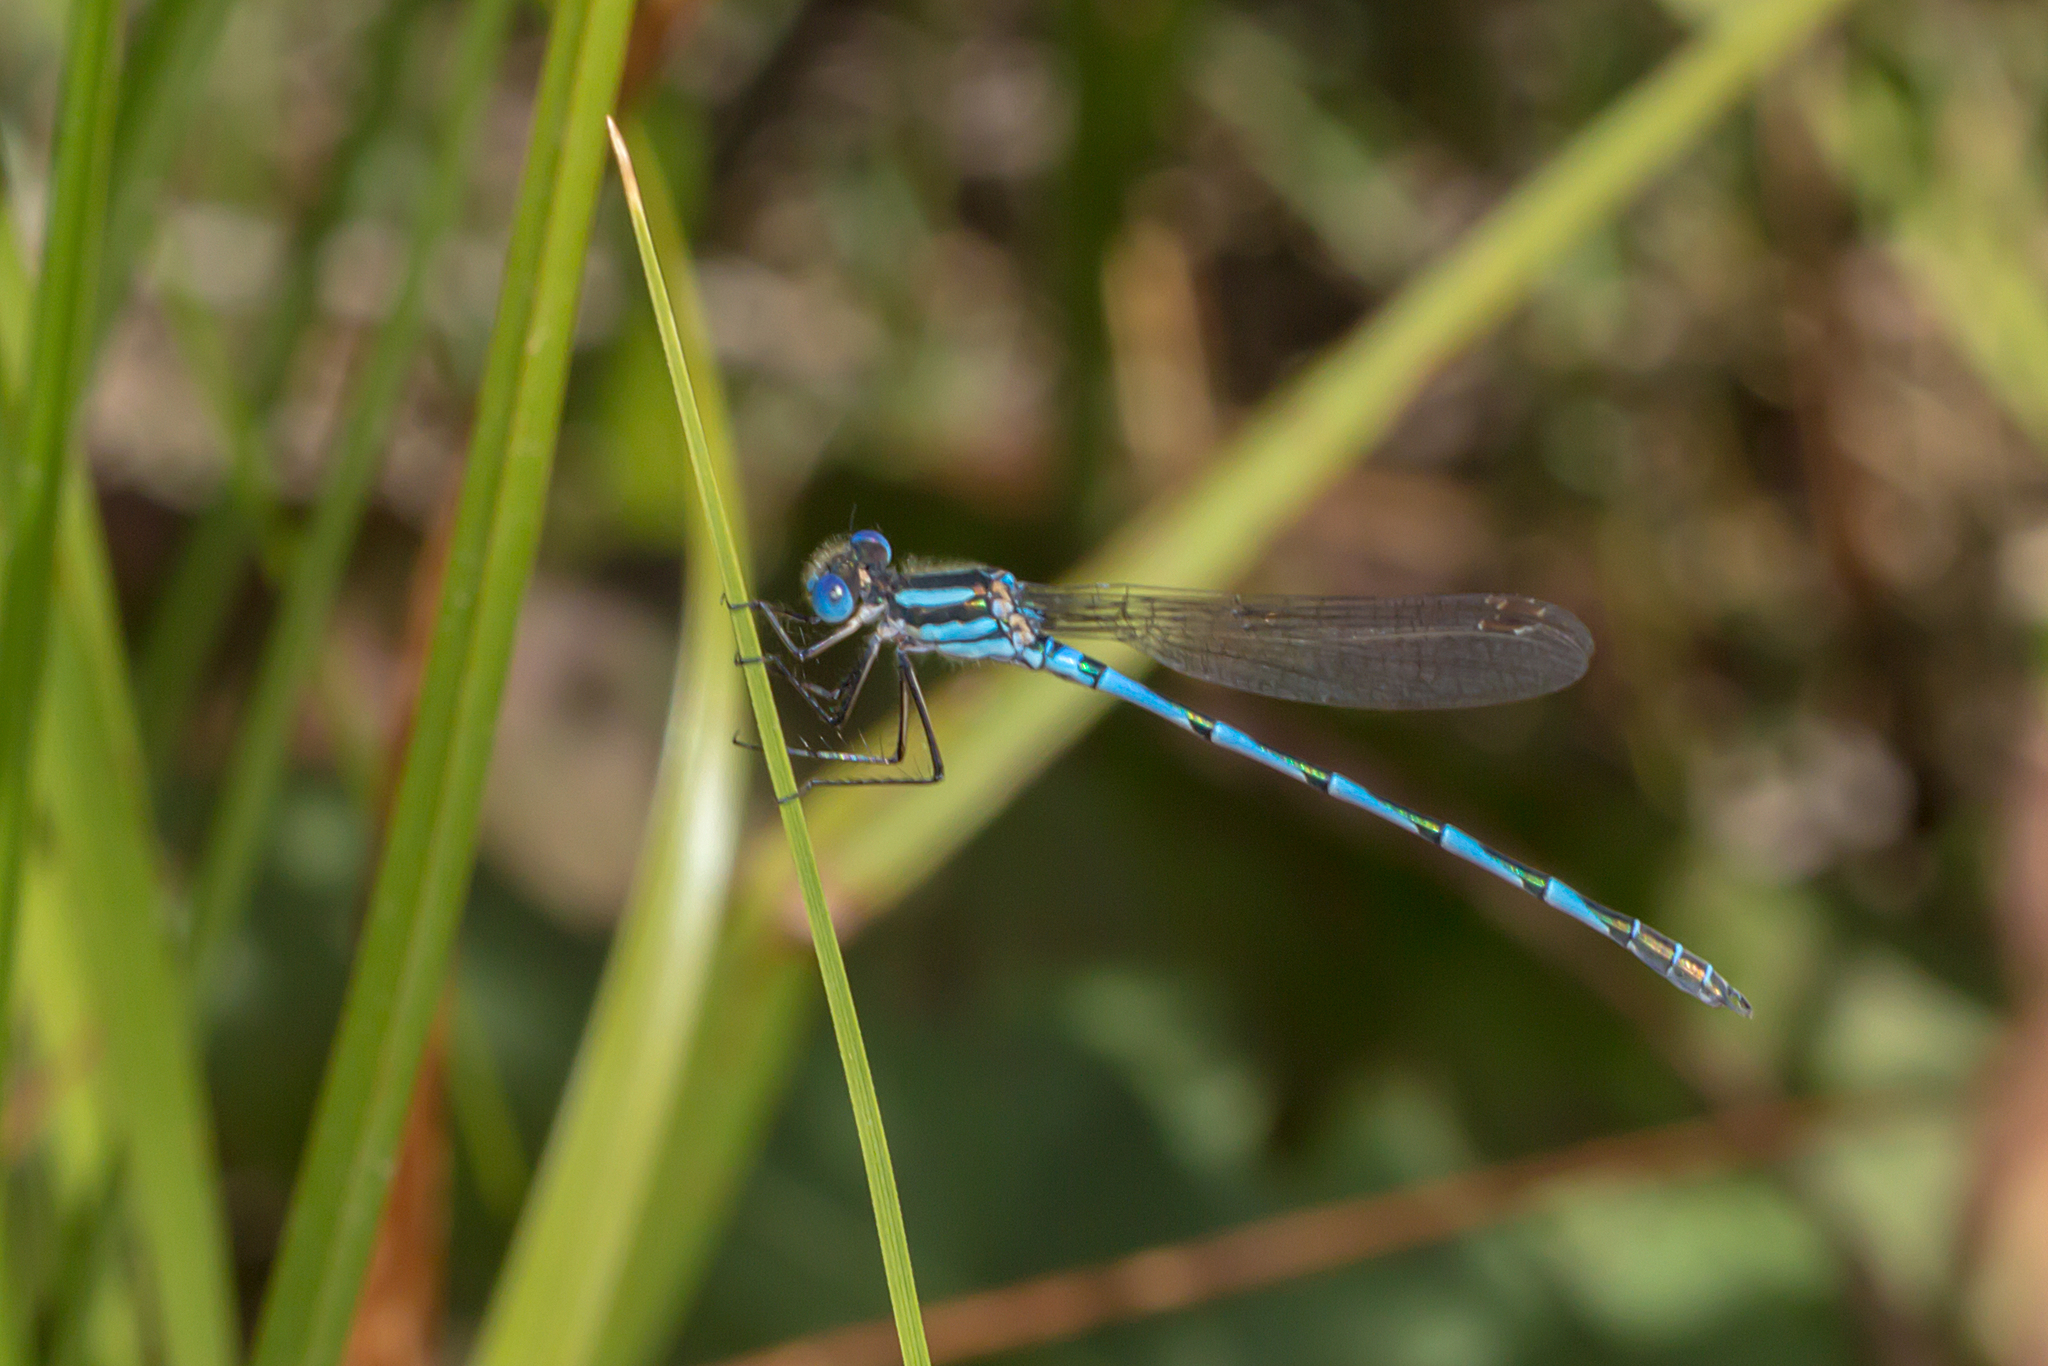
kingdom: Animalia
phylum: Arthropoda
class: Insecta
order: Odonata
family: Lestidae
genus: Austrolestes
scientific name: Austrolestes annulosus
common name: Blue ringtail
